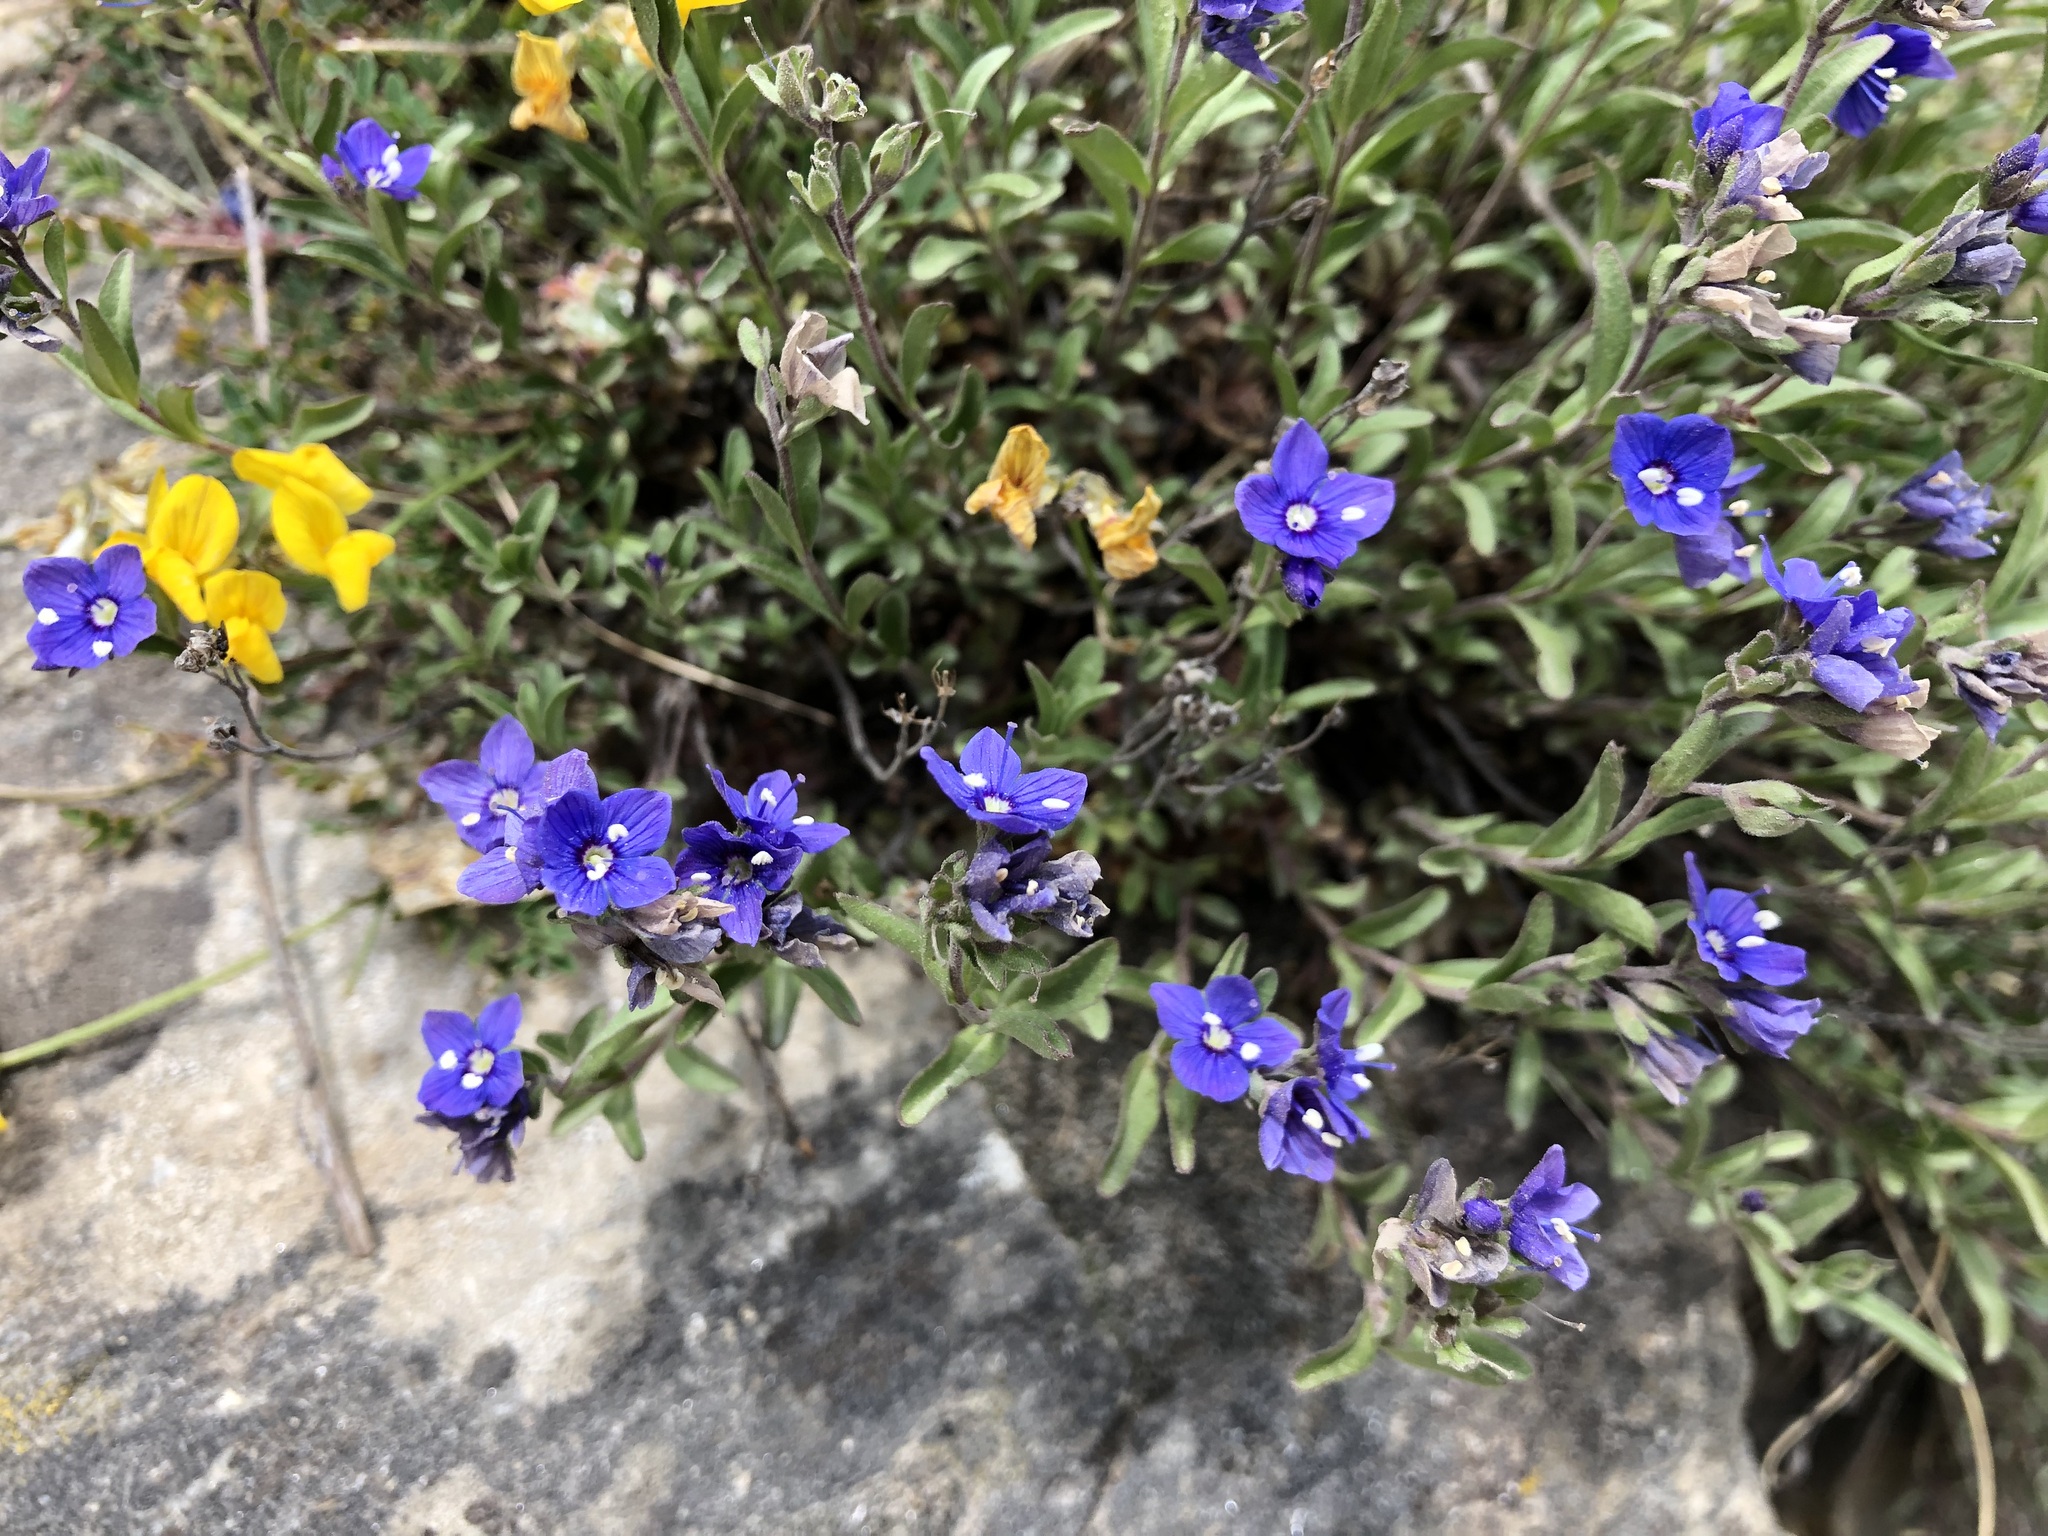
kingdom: Plantae
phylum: Tracheophyta
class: Magnoliopsida
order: Lamiales
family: Plantaginaceae
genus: Veronica
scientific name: Veronica fruticans
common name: Rock speedwell
